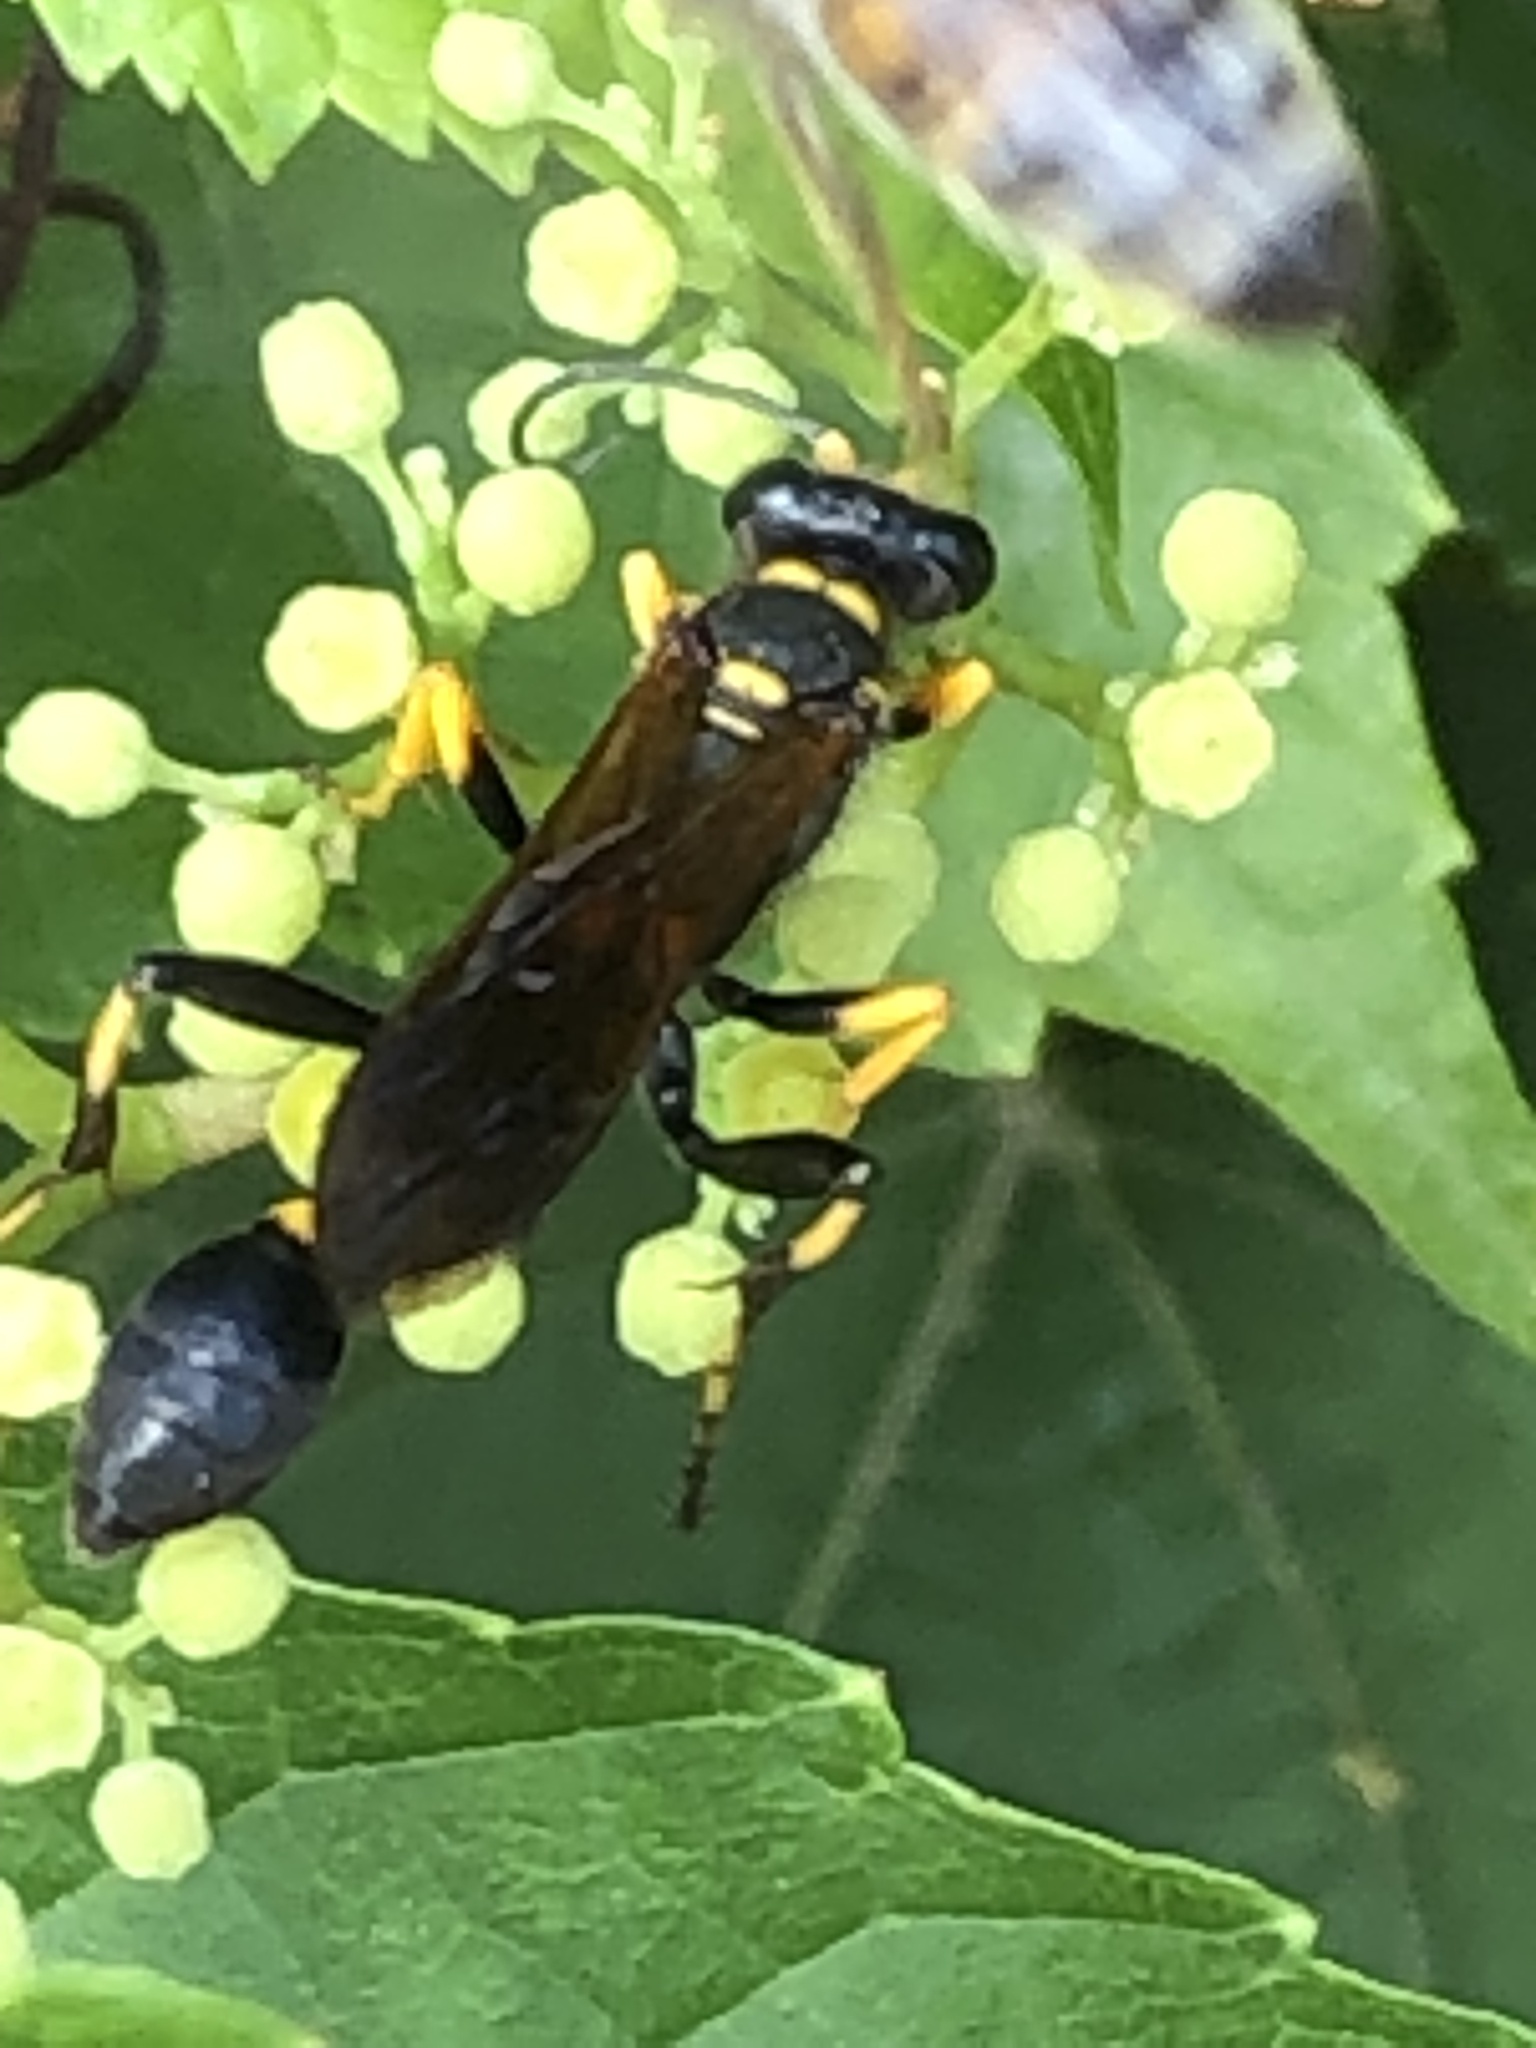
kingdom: Animalia
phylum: Arthropoda
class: Insecta
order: Hymenoptera
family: Sphecidae
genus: Sceliphron
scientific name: Sceliphron caementarium
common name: Mud dauber
